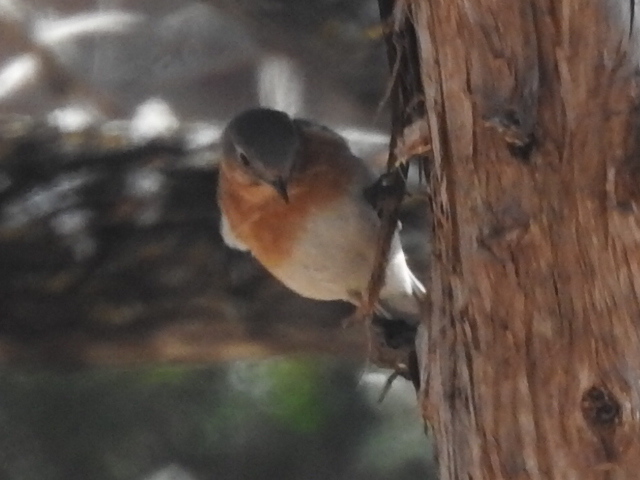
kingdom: Animalia
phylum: Chordata
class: Aves
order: Passeriformes
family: Turdidae
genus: Sialia
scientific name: Sialia sialis
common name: Eastern bluebird
